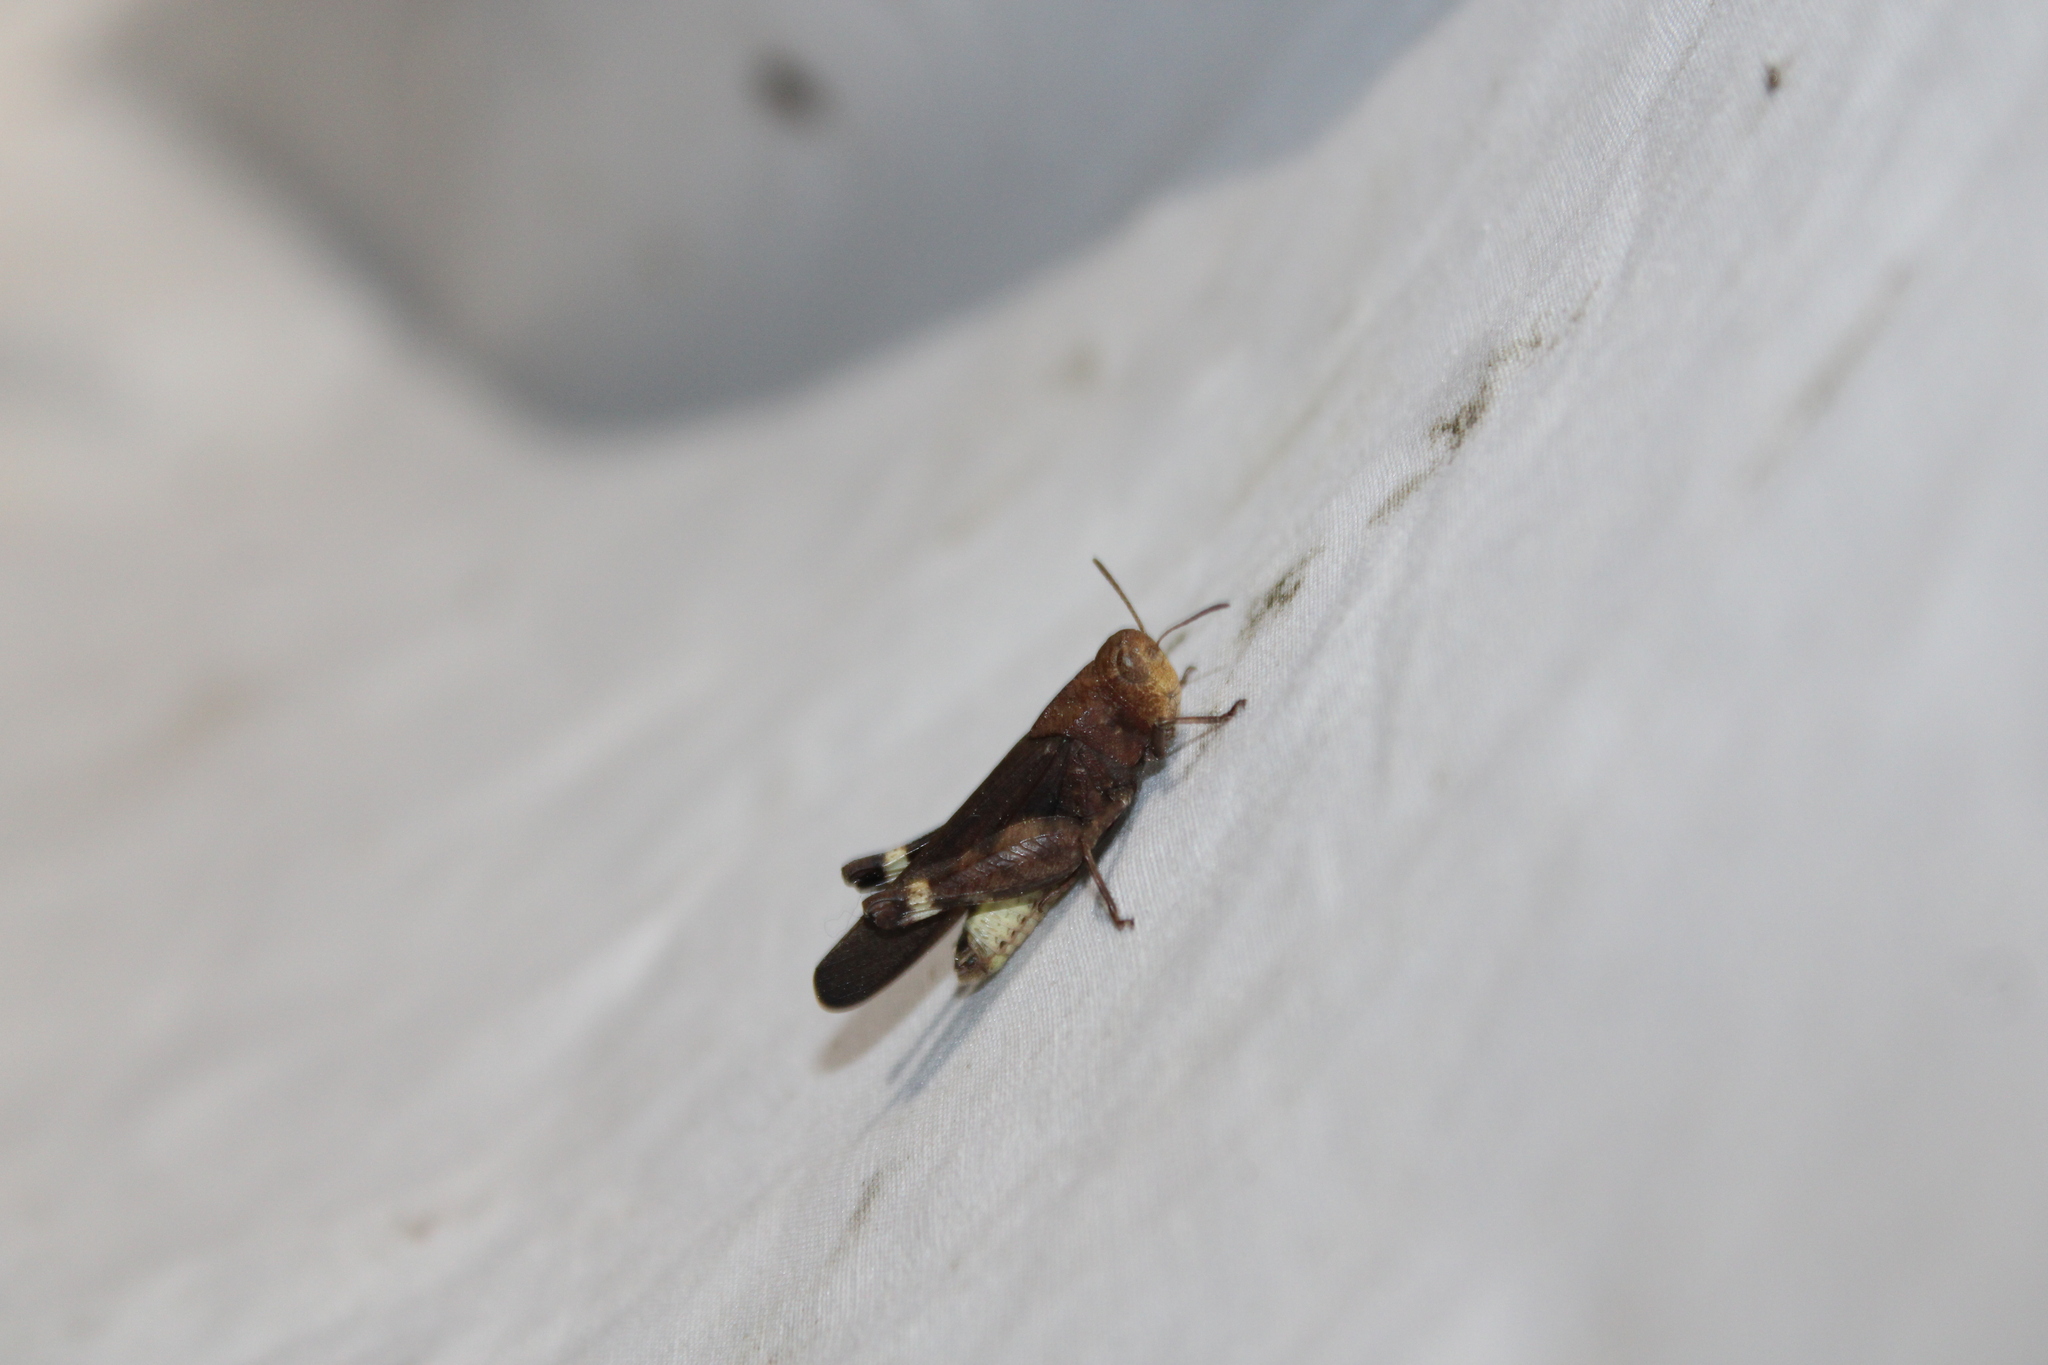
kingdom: Animalia
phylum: Arthropoda
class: Insecta
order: Orthoptera
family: Acrididae
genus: Arphia
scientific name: Arphia sulphurea
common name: Spring yellow-winged locust
